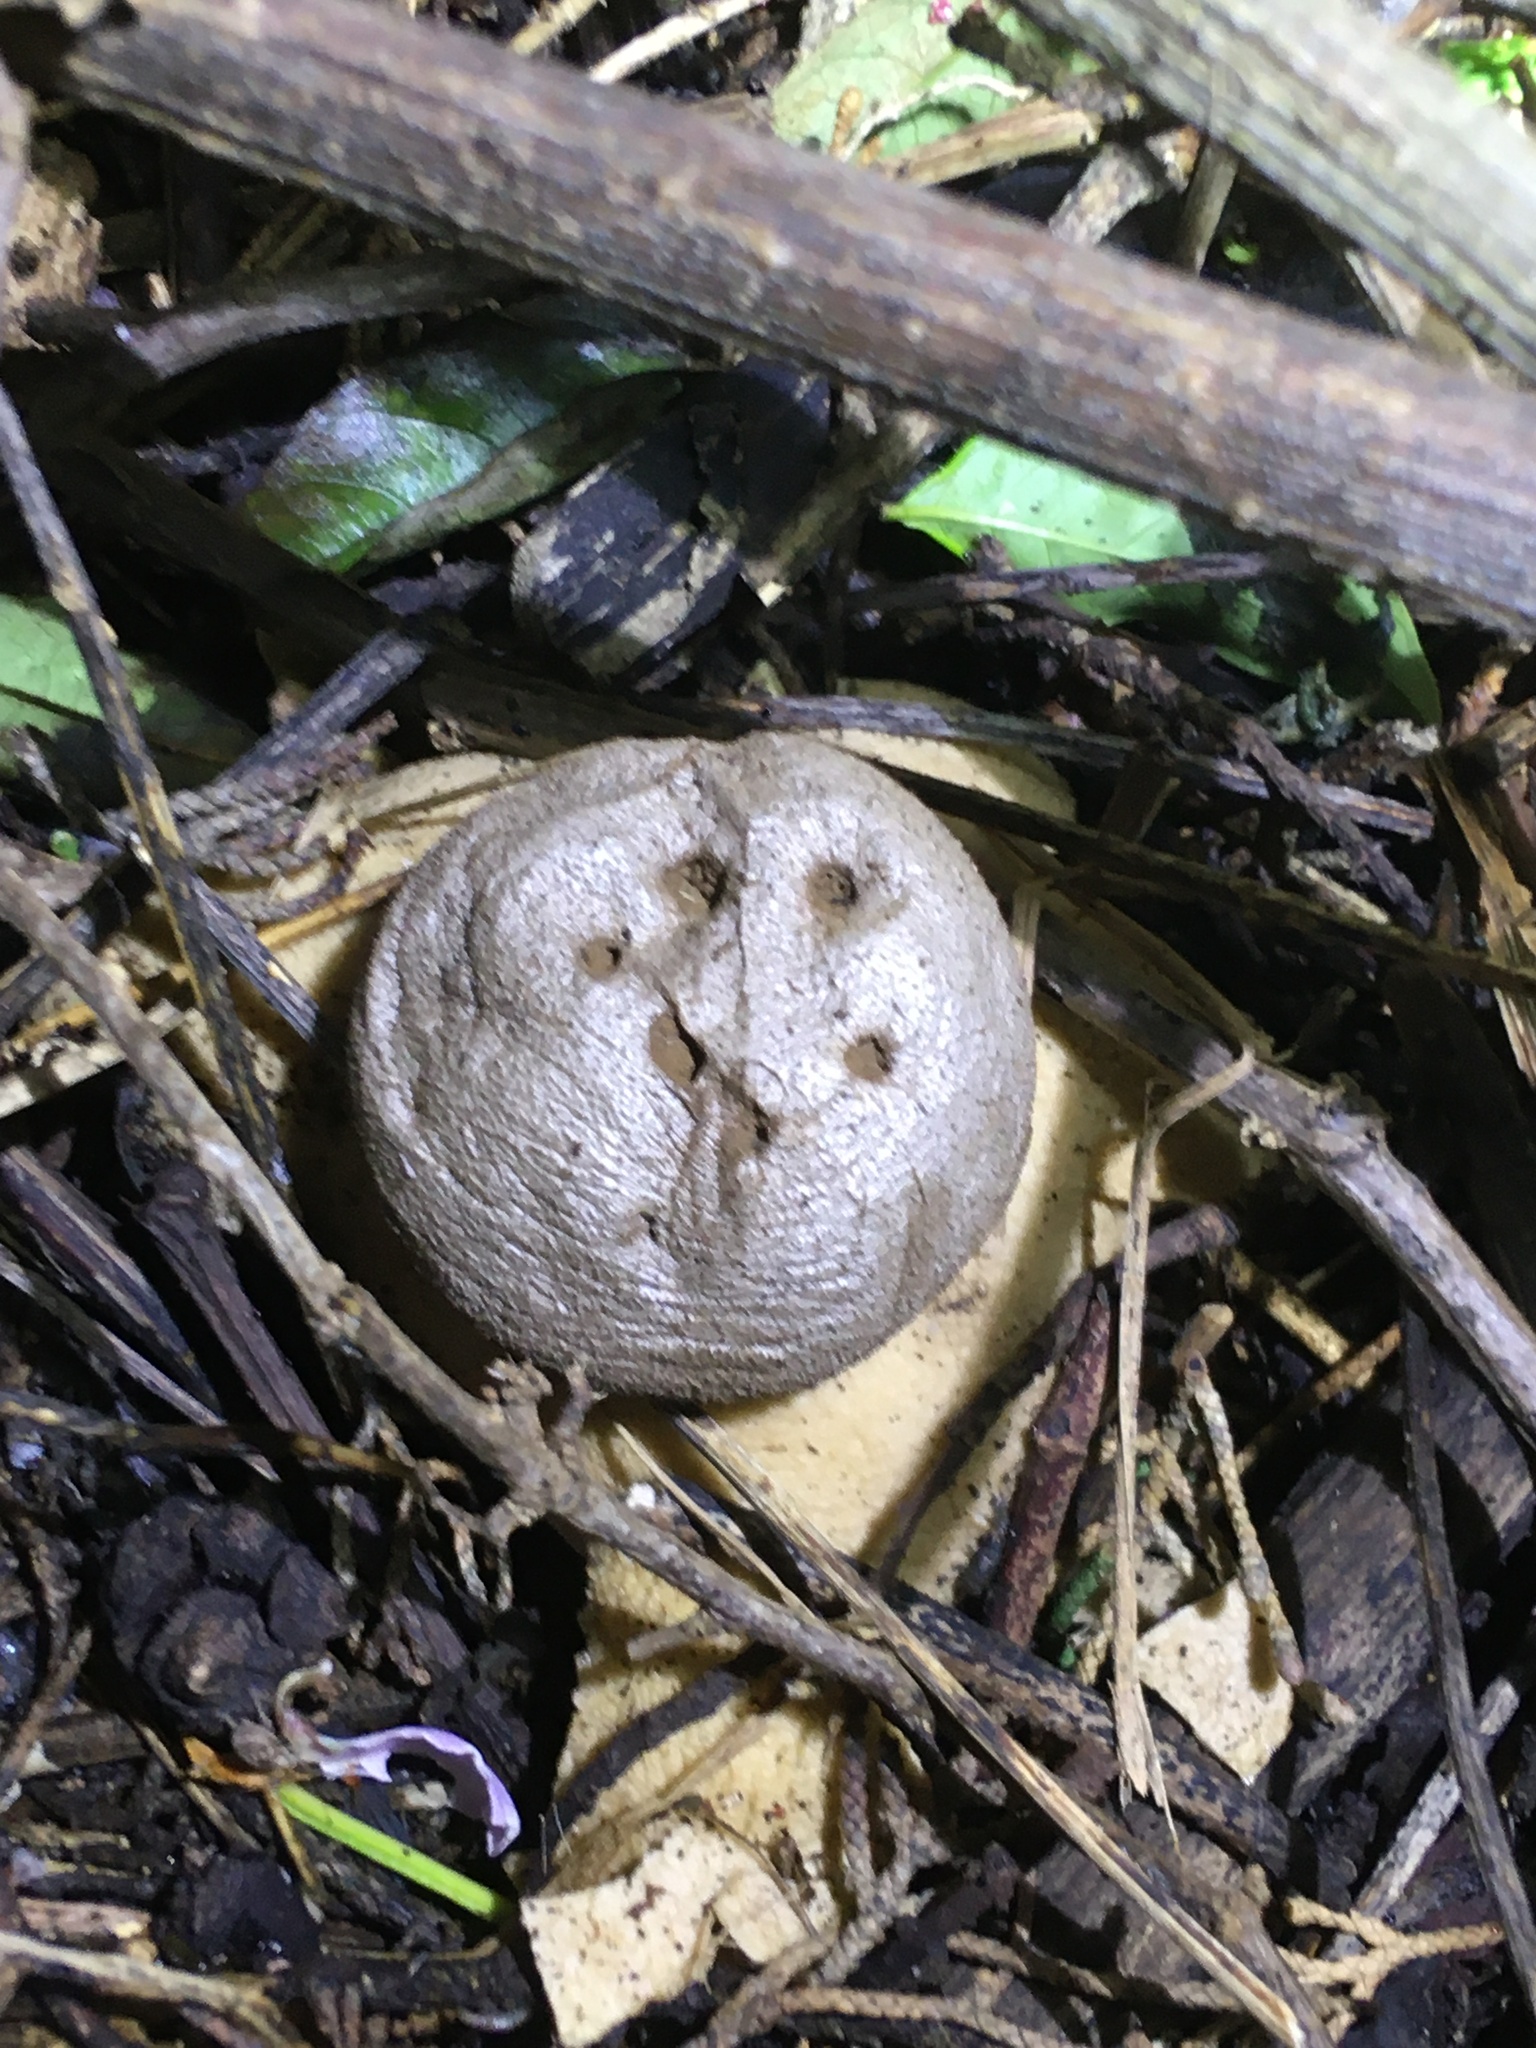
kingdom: Fungi
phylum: Basidiomycota
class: Agaricomycetes
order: Geastrales
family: Geastraceae
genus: Myriostoma
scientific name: Myriostoma capillisporum
